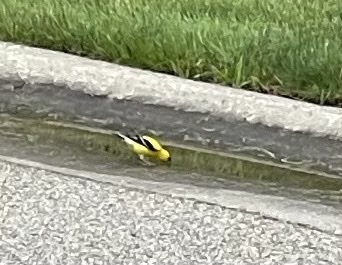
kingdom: Animalia
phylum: Chordata
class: Aves
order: Passeriformes
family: Fringillidae
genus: Spinus
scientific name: Spinus tristis
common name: American goldfinch
